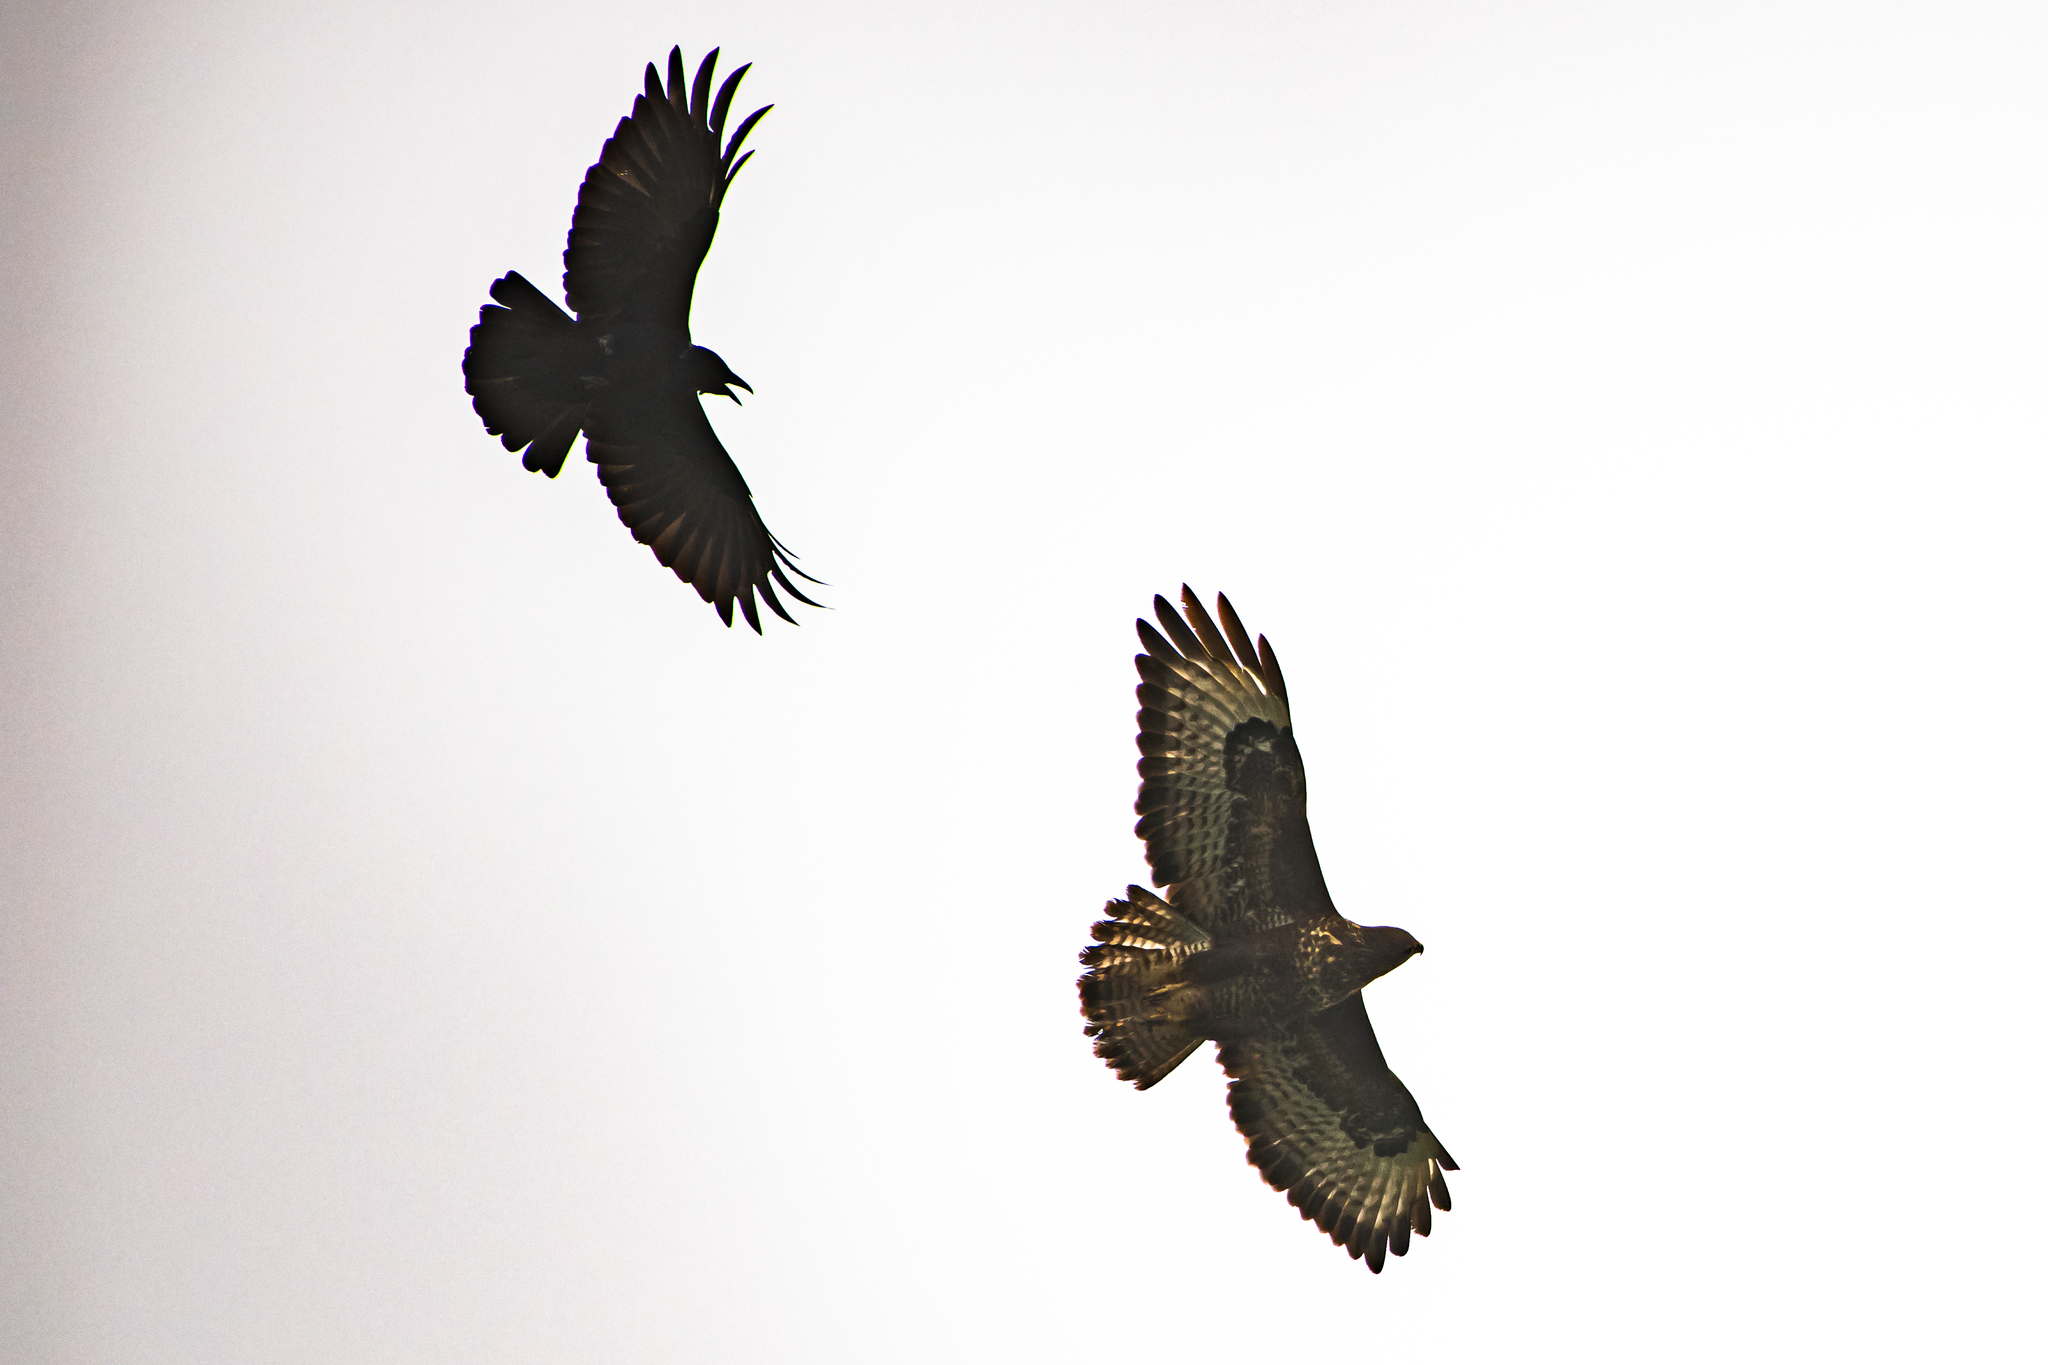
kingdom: Animalia
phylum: Chordata
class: Aves
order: Passeriformes
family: Corvidae
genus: Corvus
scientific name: Corvus corone
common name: Carrion crow
